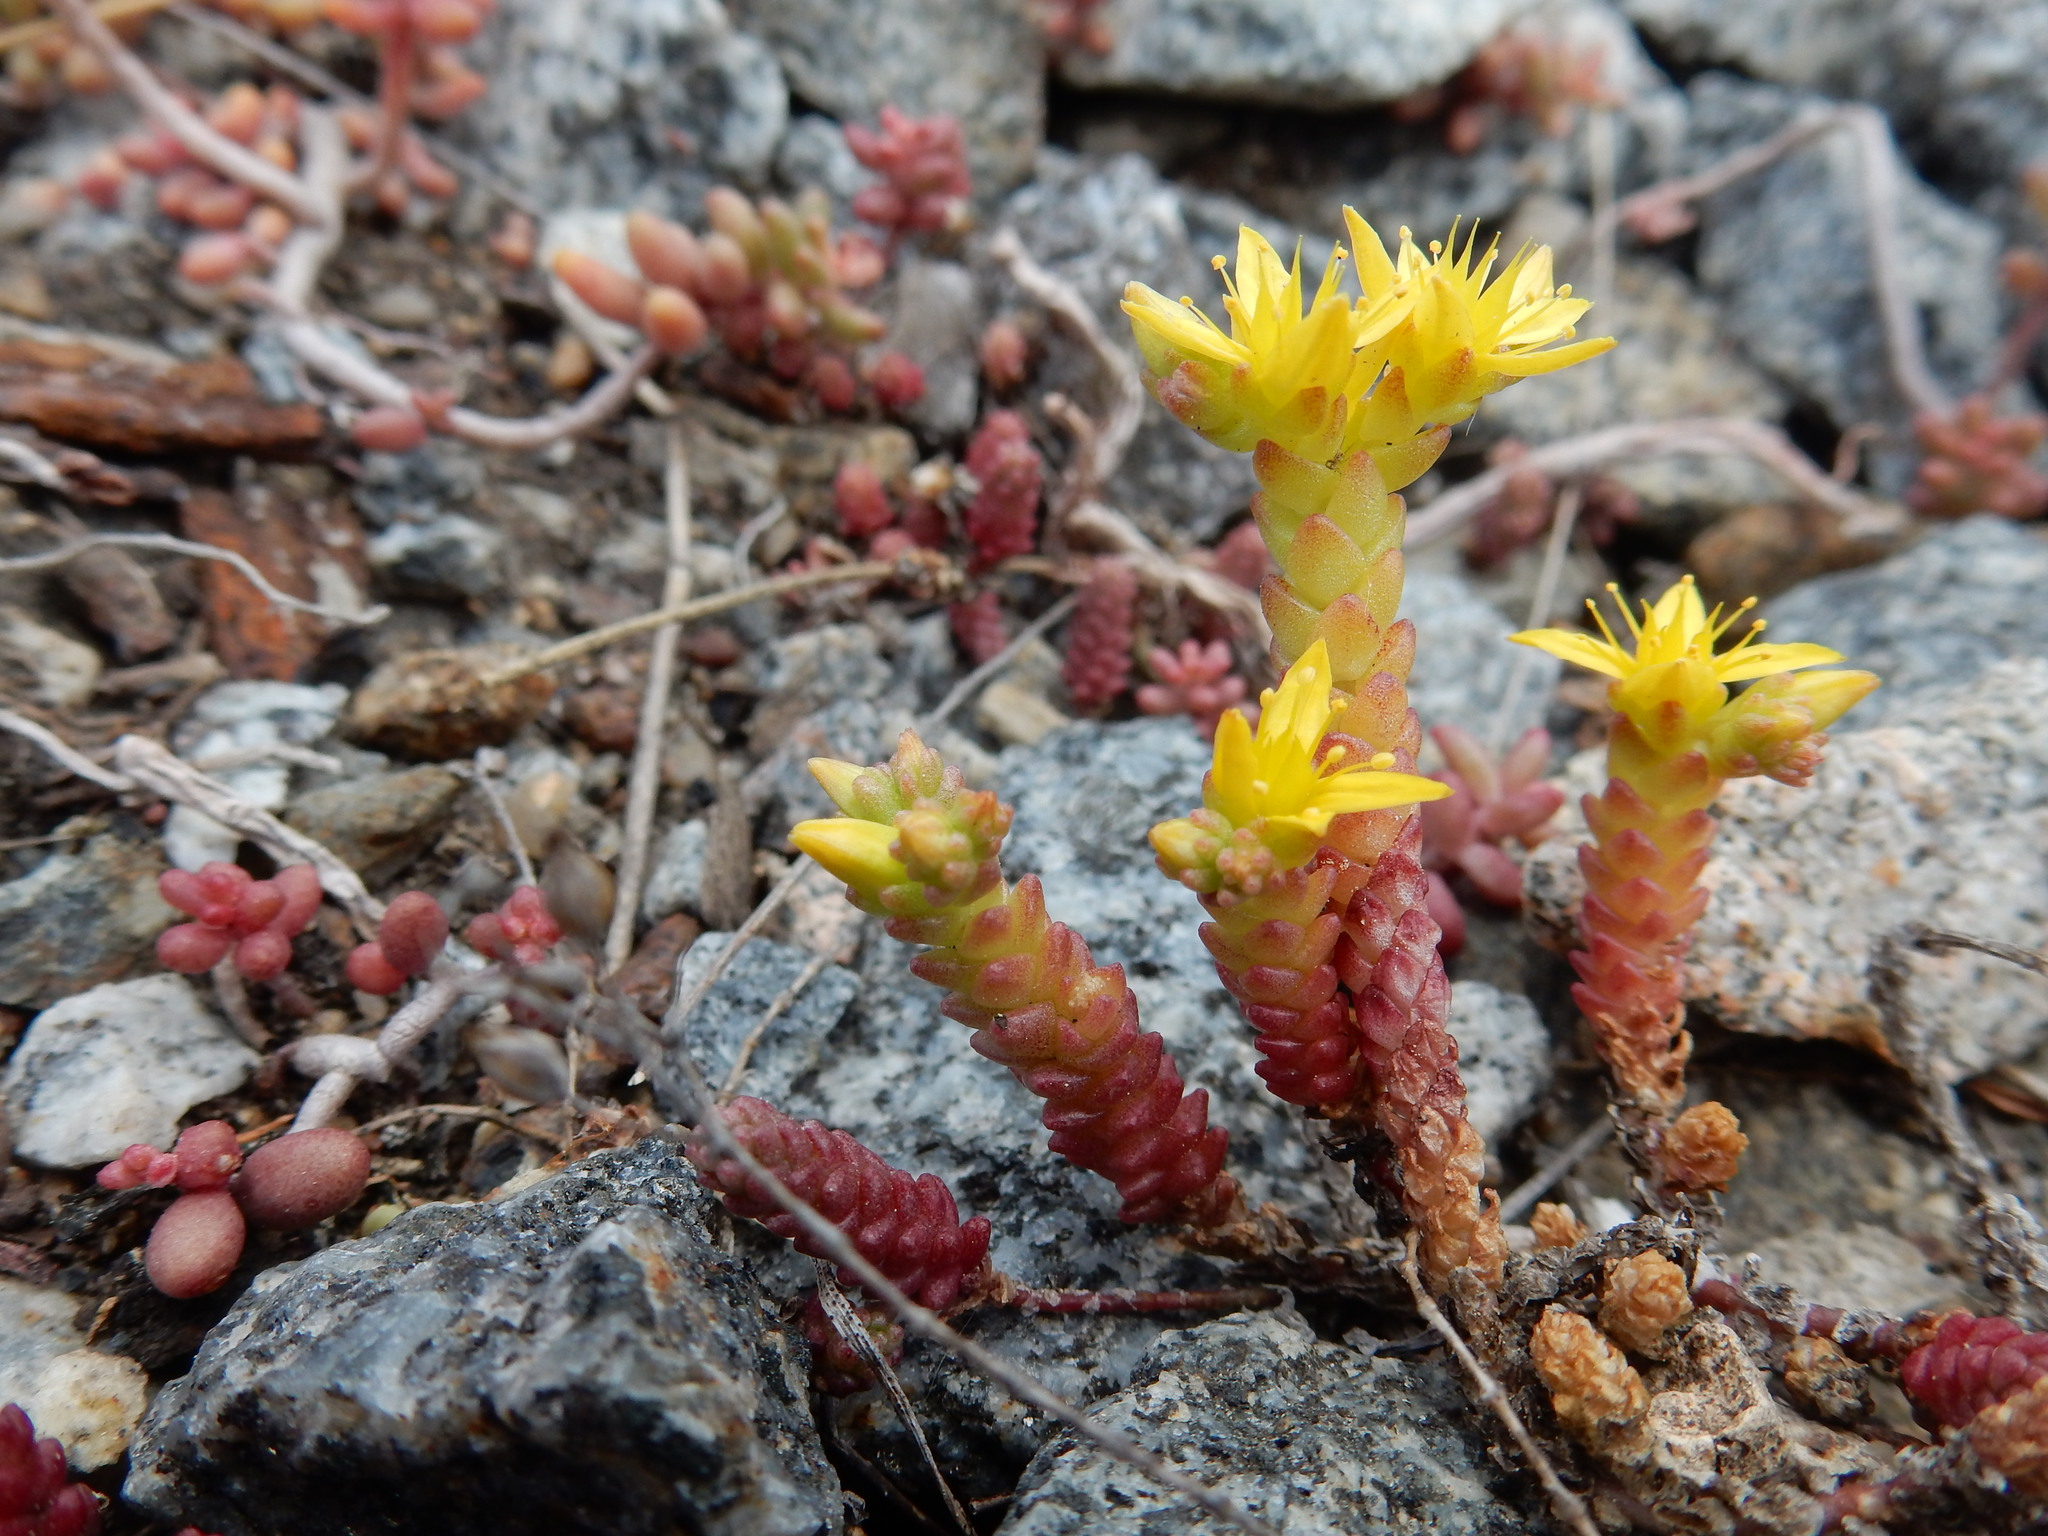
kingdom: Plantae
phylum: Tracheophyta
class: Magnoliopsida
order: Saxifragales
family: Crassulaceae
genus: Sedum
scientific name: Sedum acre
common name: Biting stonecrop
